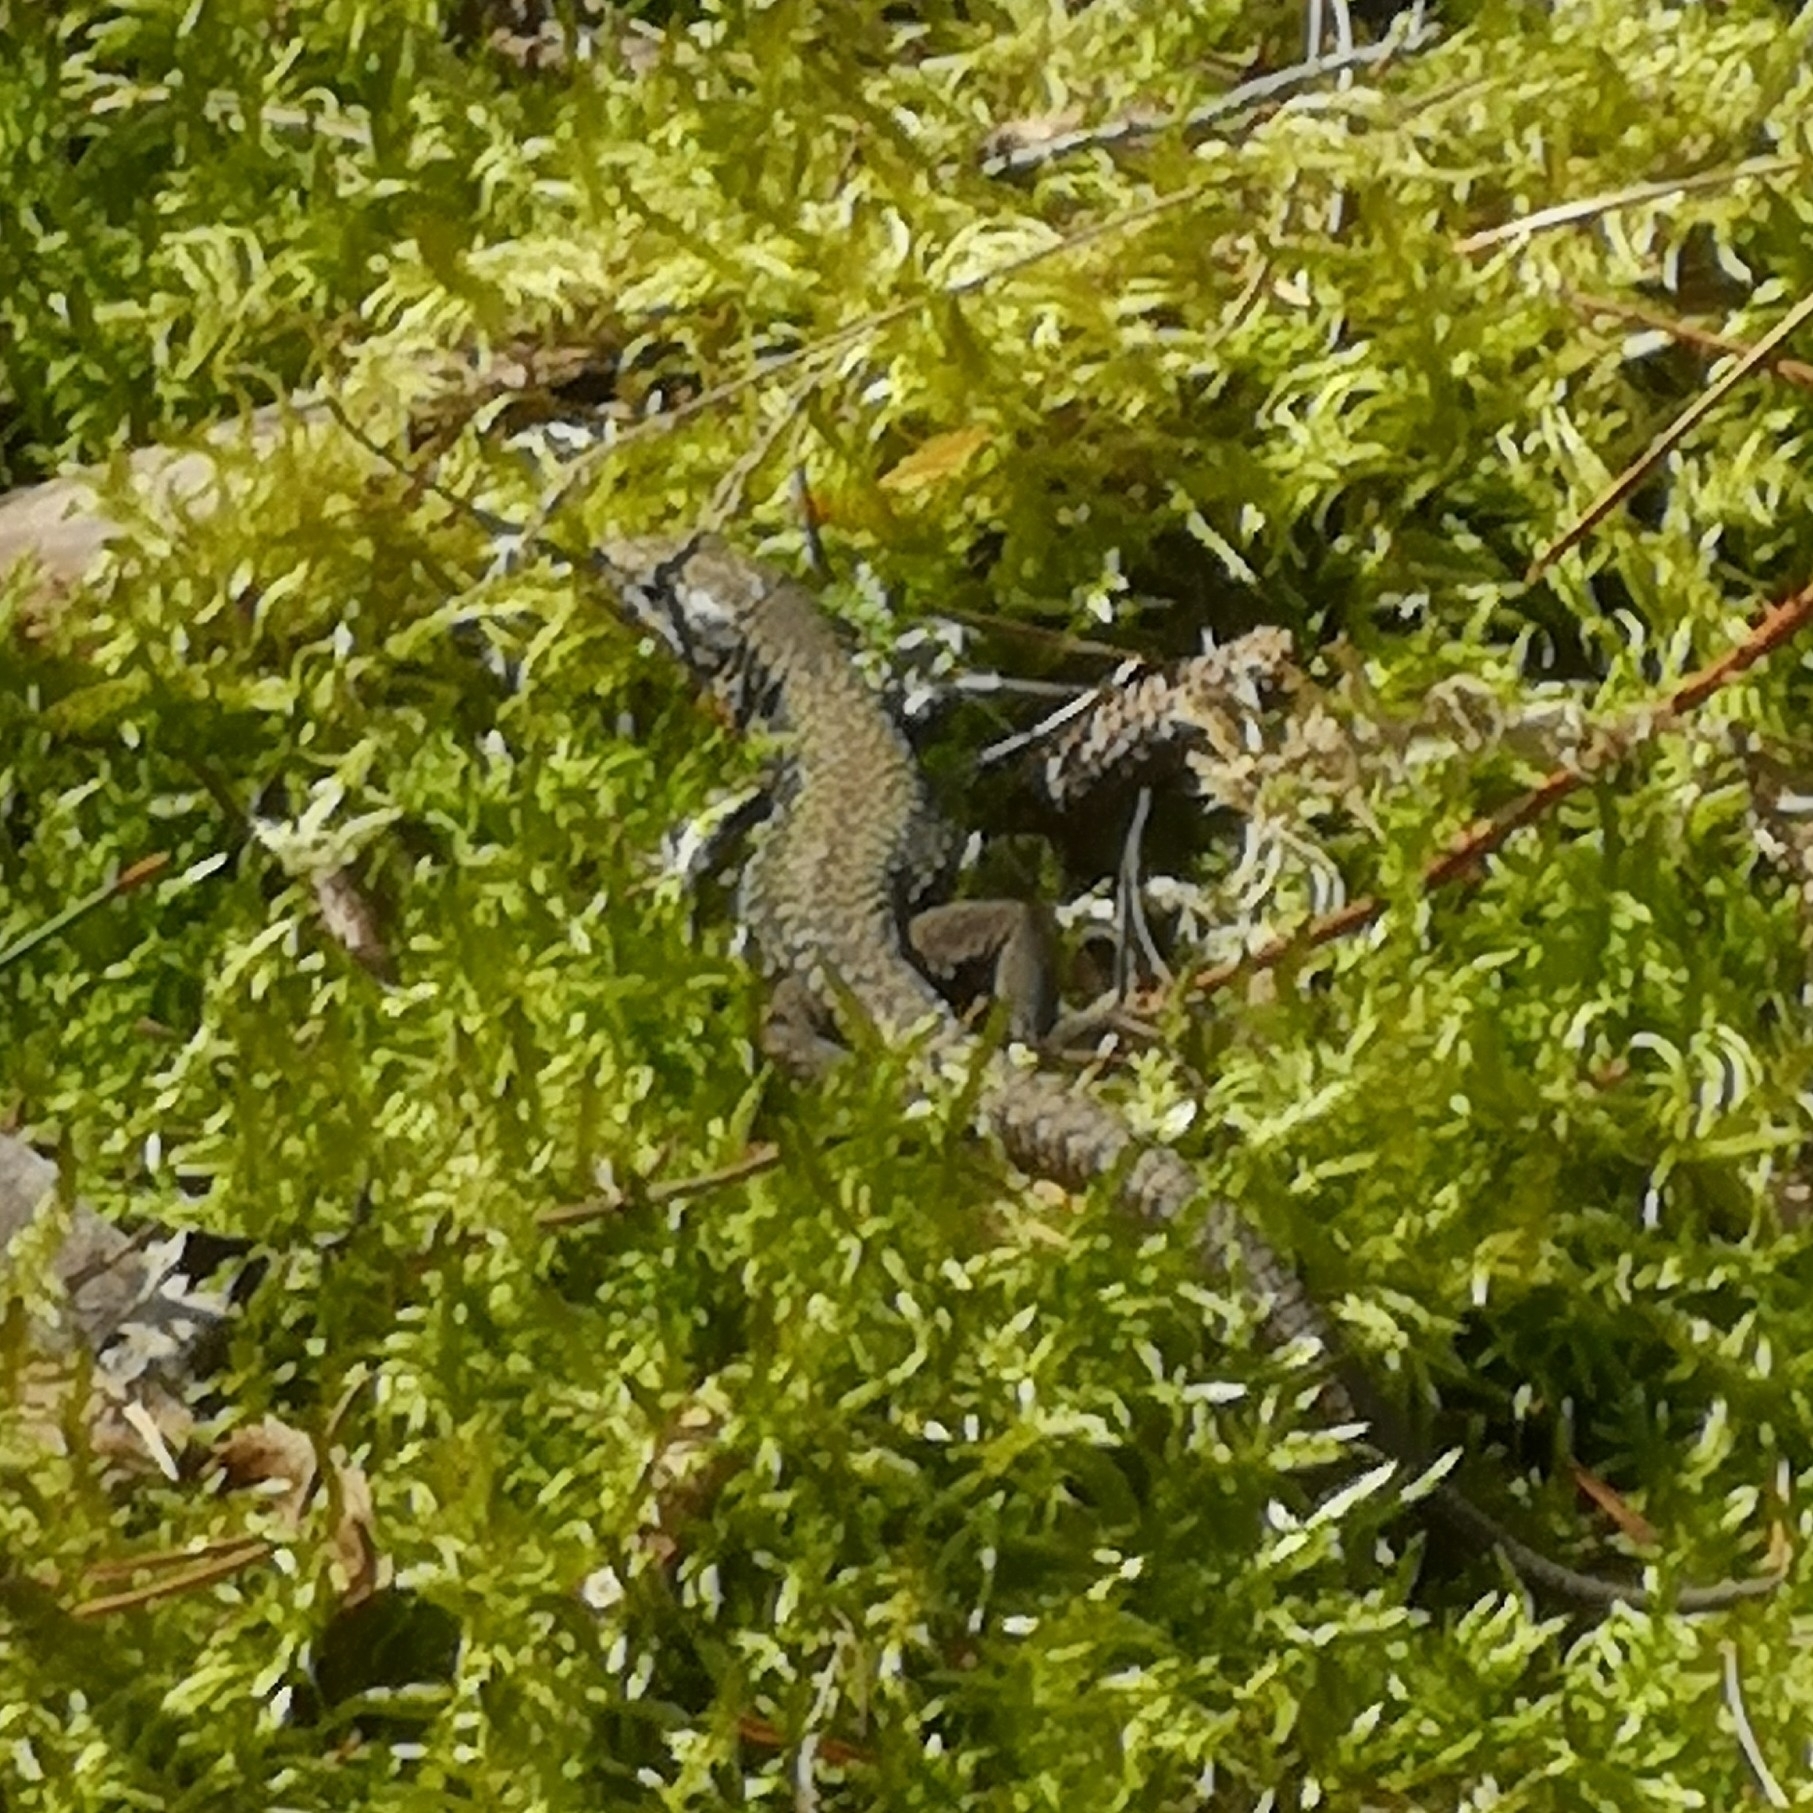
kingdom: Animalia
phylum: Chordata
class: Squamata
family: Lacertidae
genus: Podarcis
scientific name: Podarcis muralis
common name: Common wall lizard
